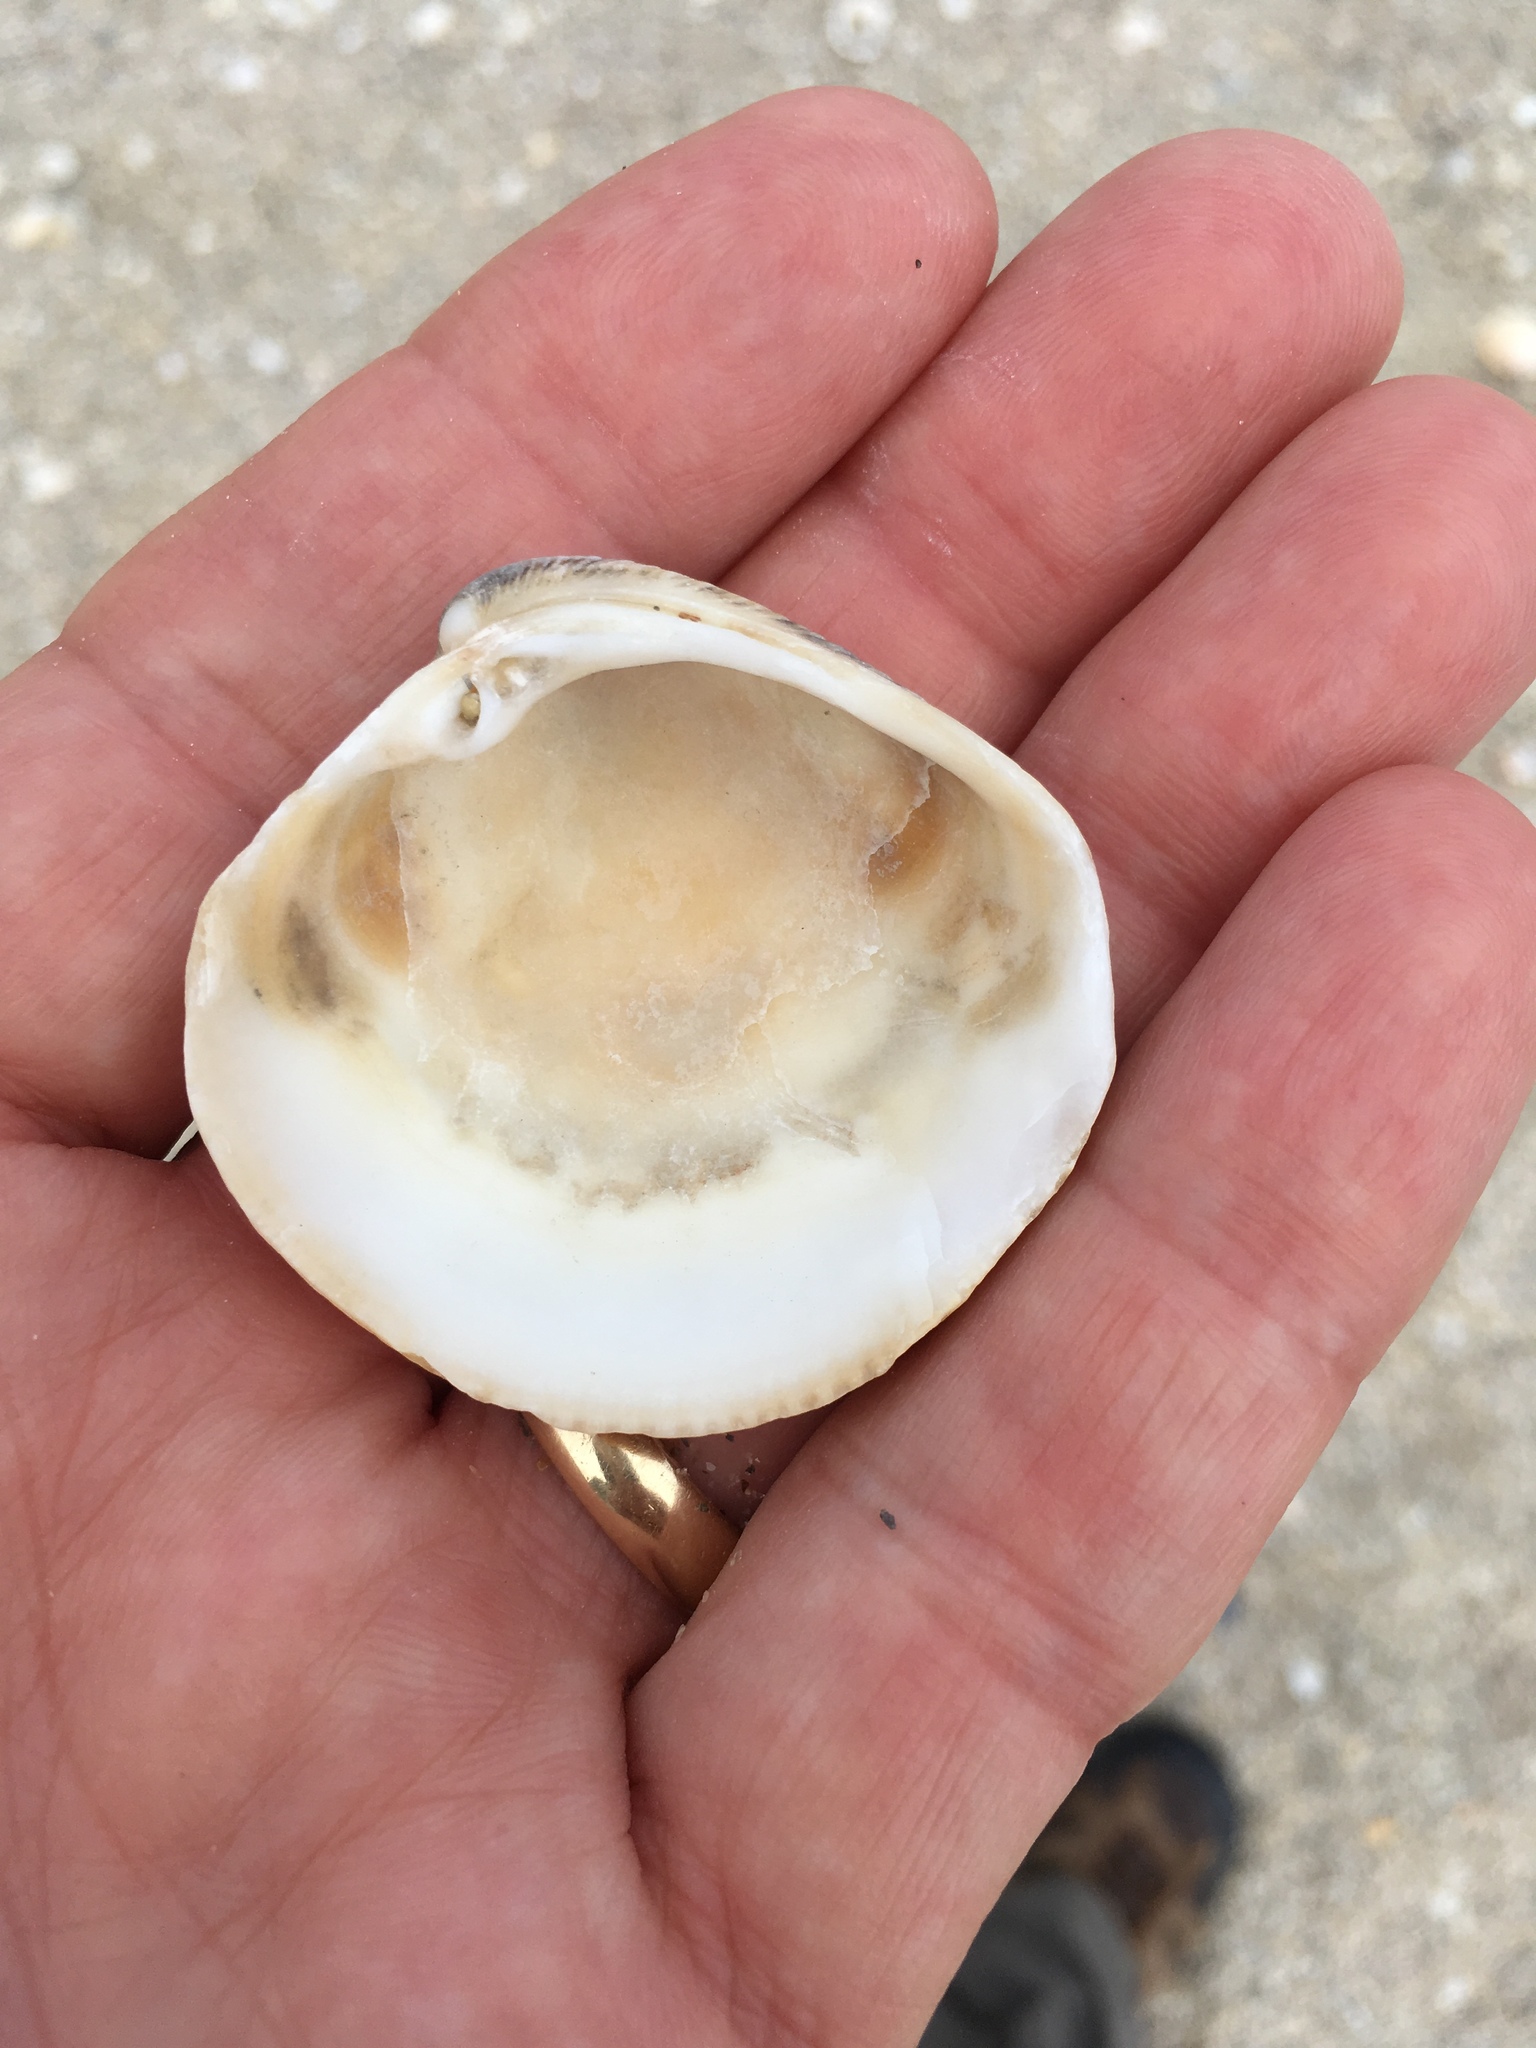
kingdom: Animalia
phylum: Mollusca
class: Bivalvia
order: Venerida
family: Veneridae
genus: Chionopsis
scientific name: Chionopsis intapurpurea
